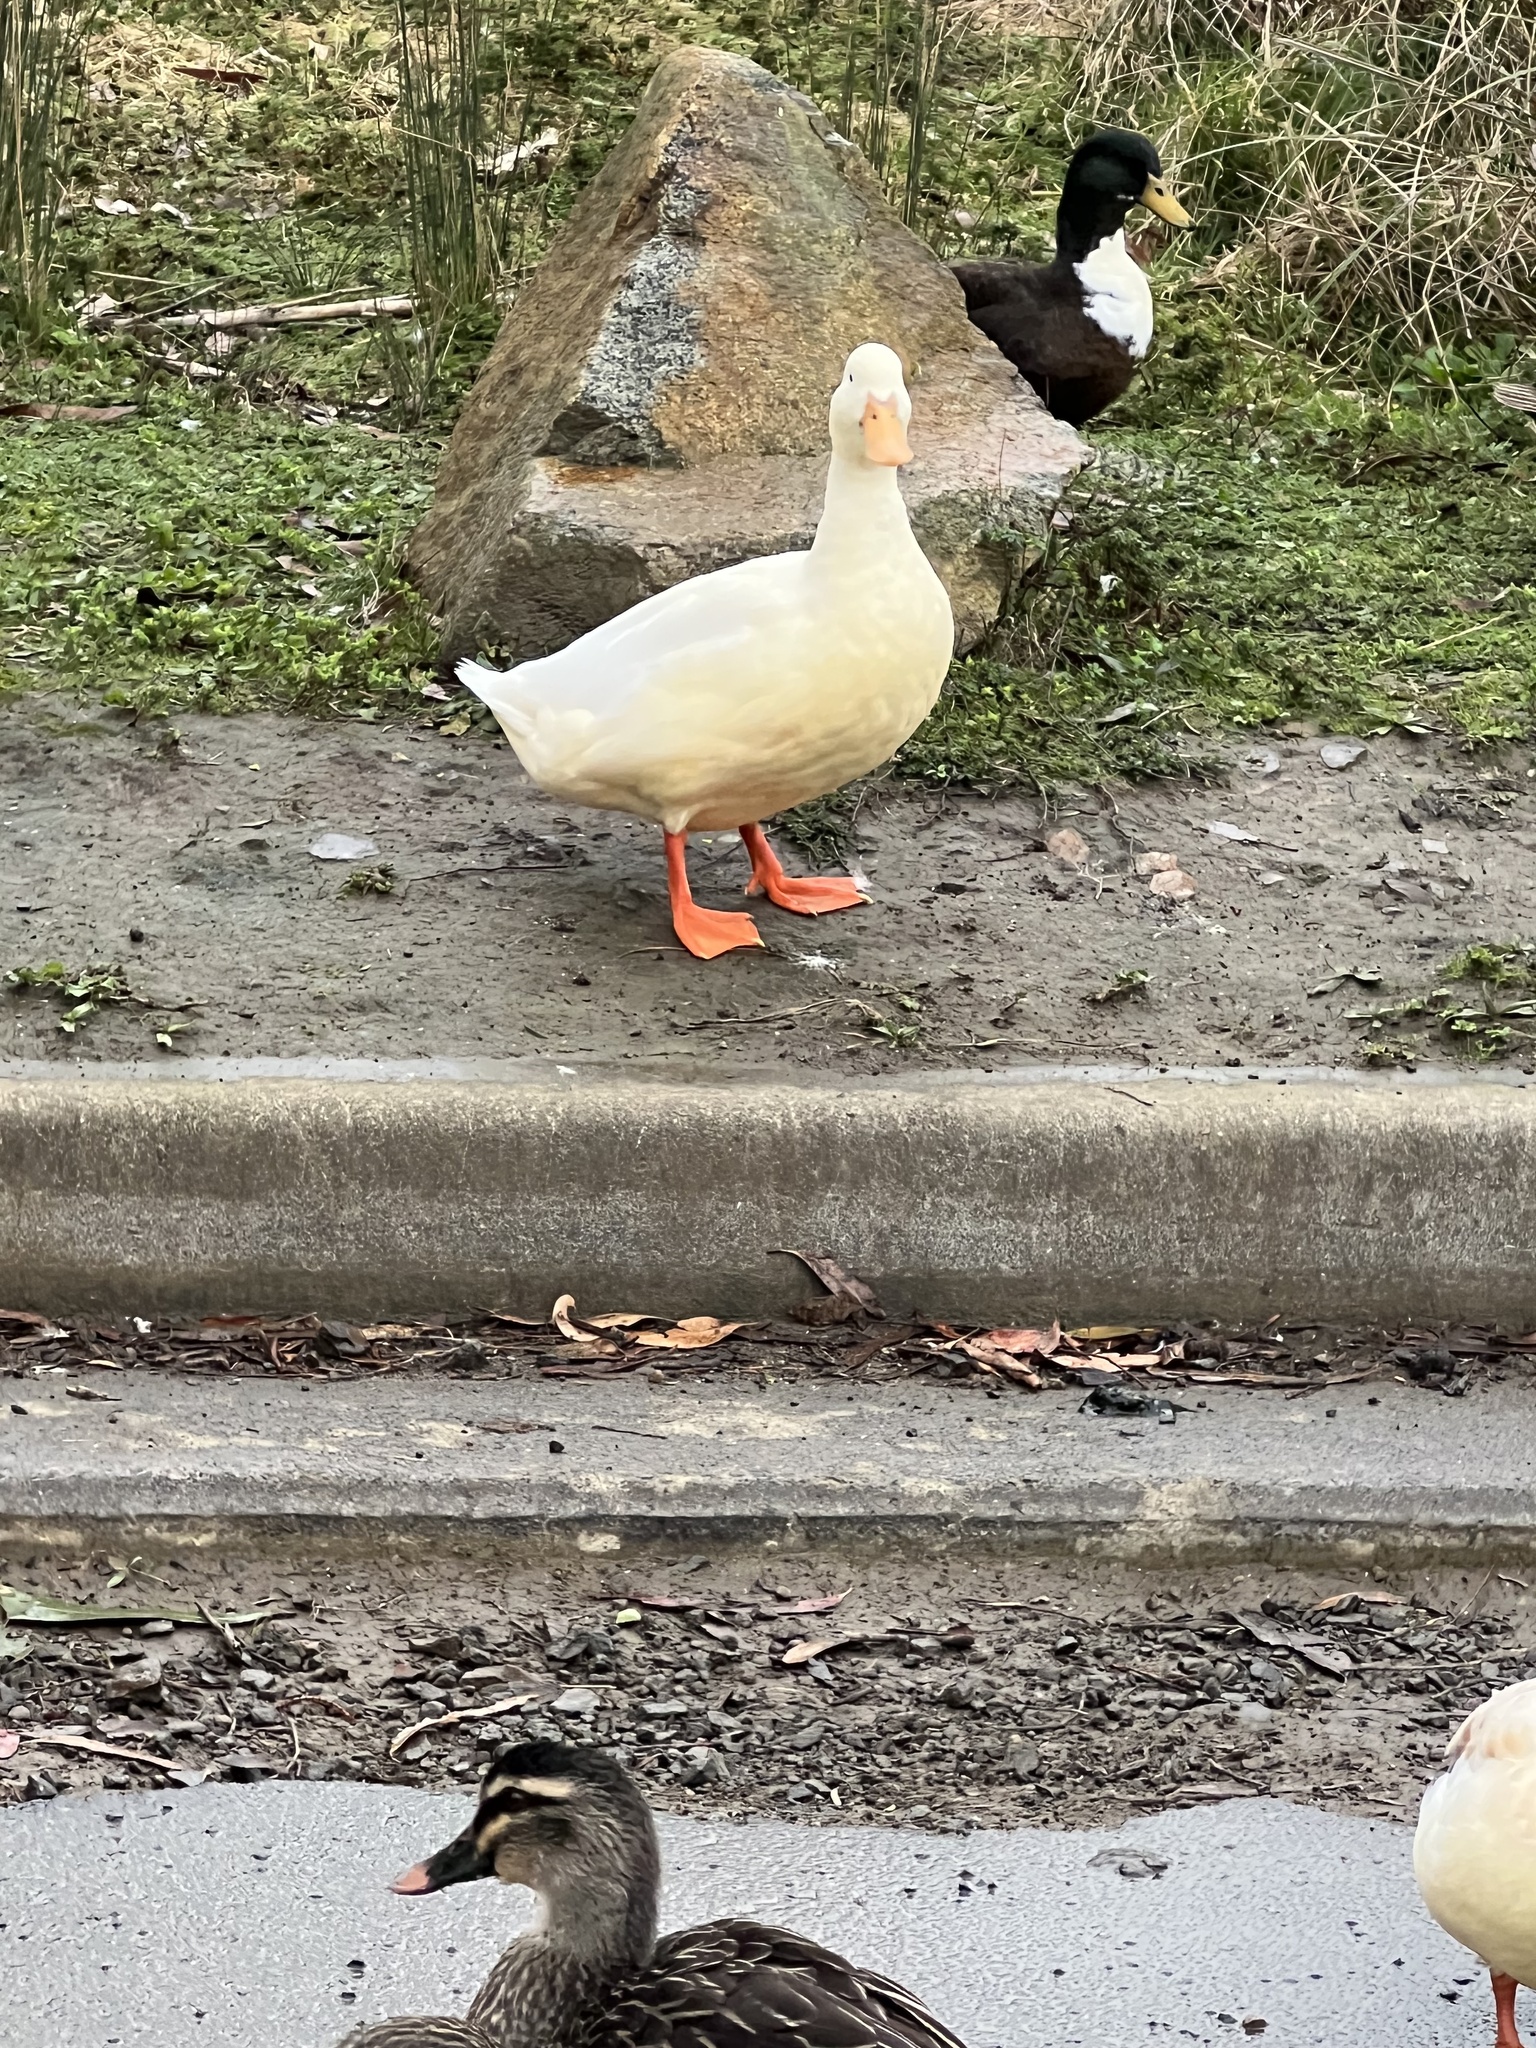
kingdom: Animalia
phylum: Chordata
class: Aves
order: Anseriformes
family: Anatidae
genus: Anas
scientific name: Anas platyrhynchos
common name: Mallard
